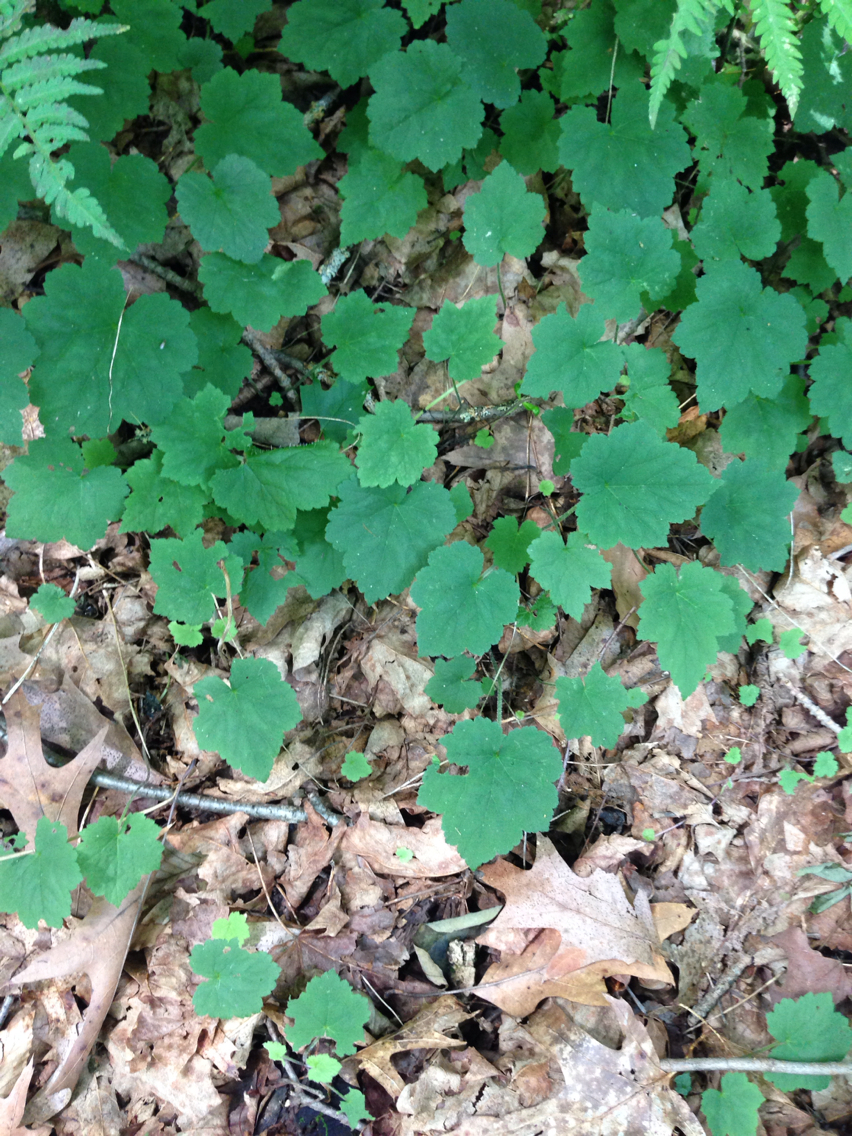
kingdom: Plantae
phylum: Tracheophyta
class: Magnoliopsida
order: Saxifragales
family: Saxifragaceae
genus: Tiarella
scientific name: Tiarella stolonifera
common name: Stoloniferous foamflower
